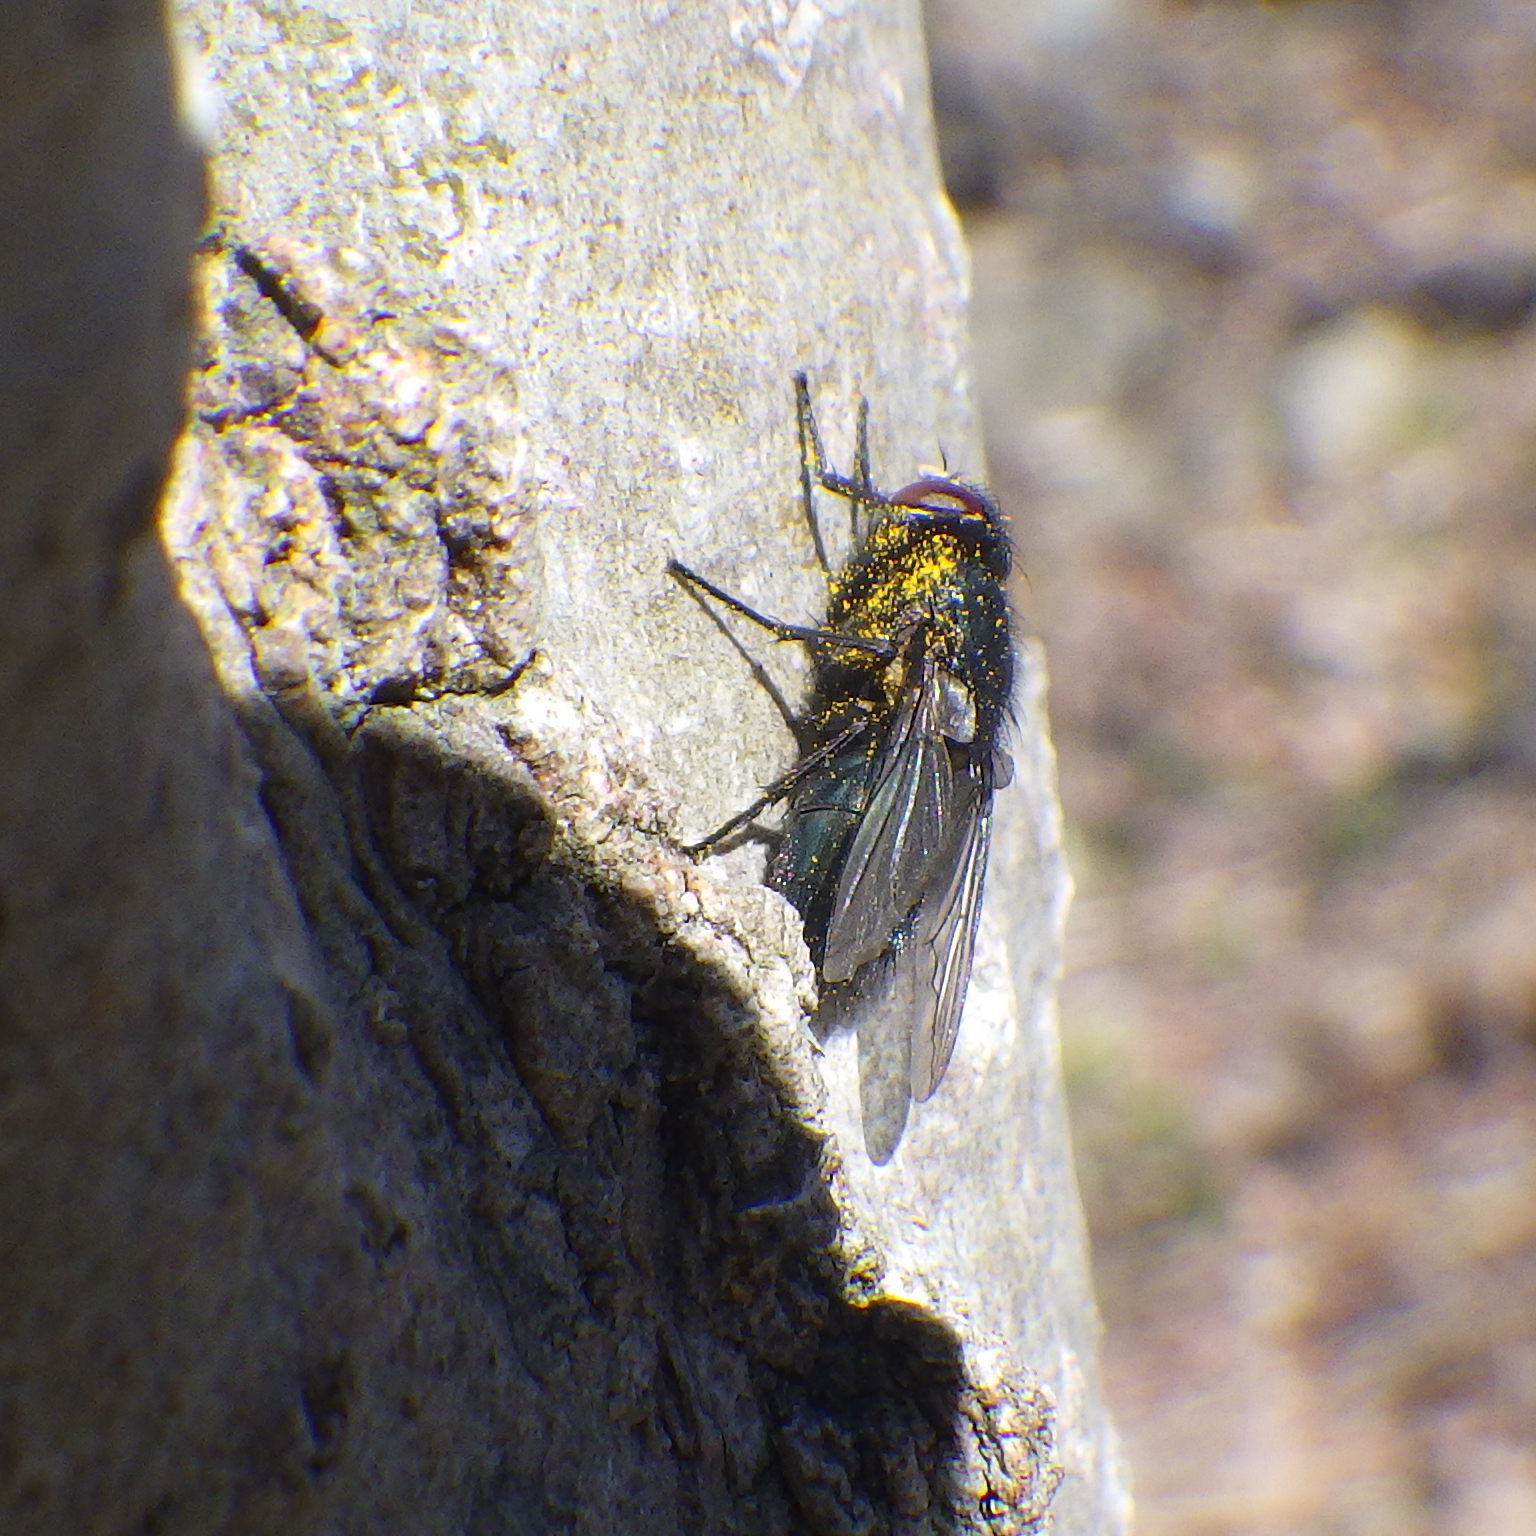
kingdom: Animalia
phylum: Arthropoda
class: Insecta
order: Diptera
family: Calliphoridae
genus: Protophormia
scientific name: Protophormia terraenovae
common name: Blackbottle
